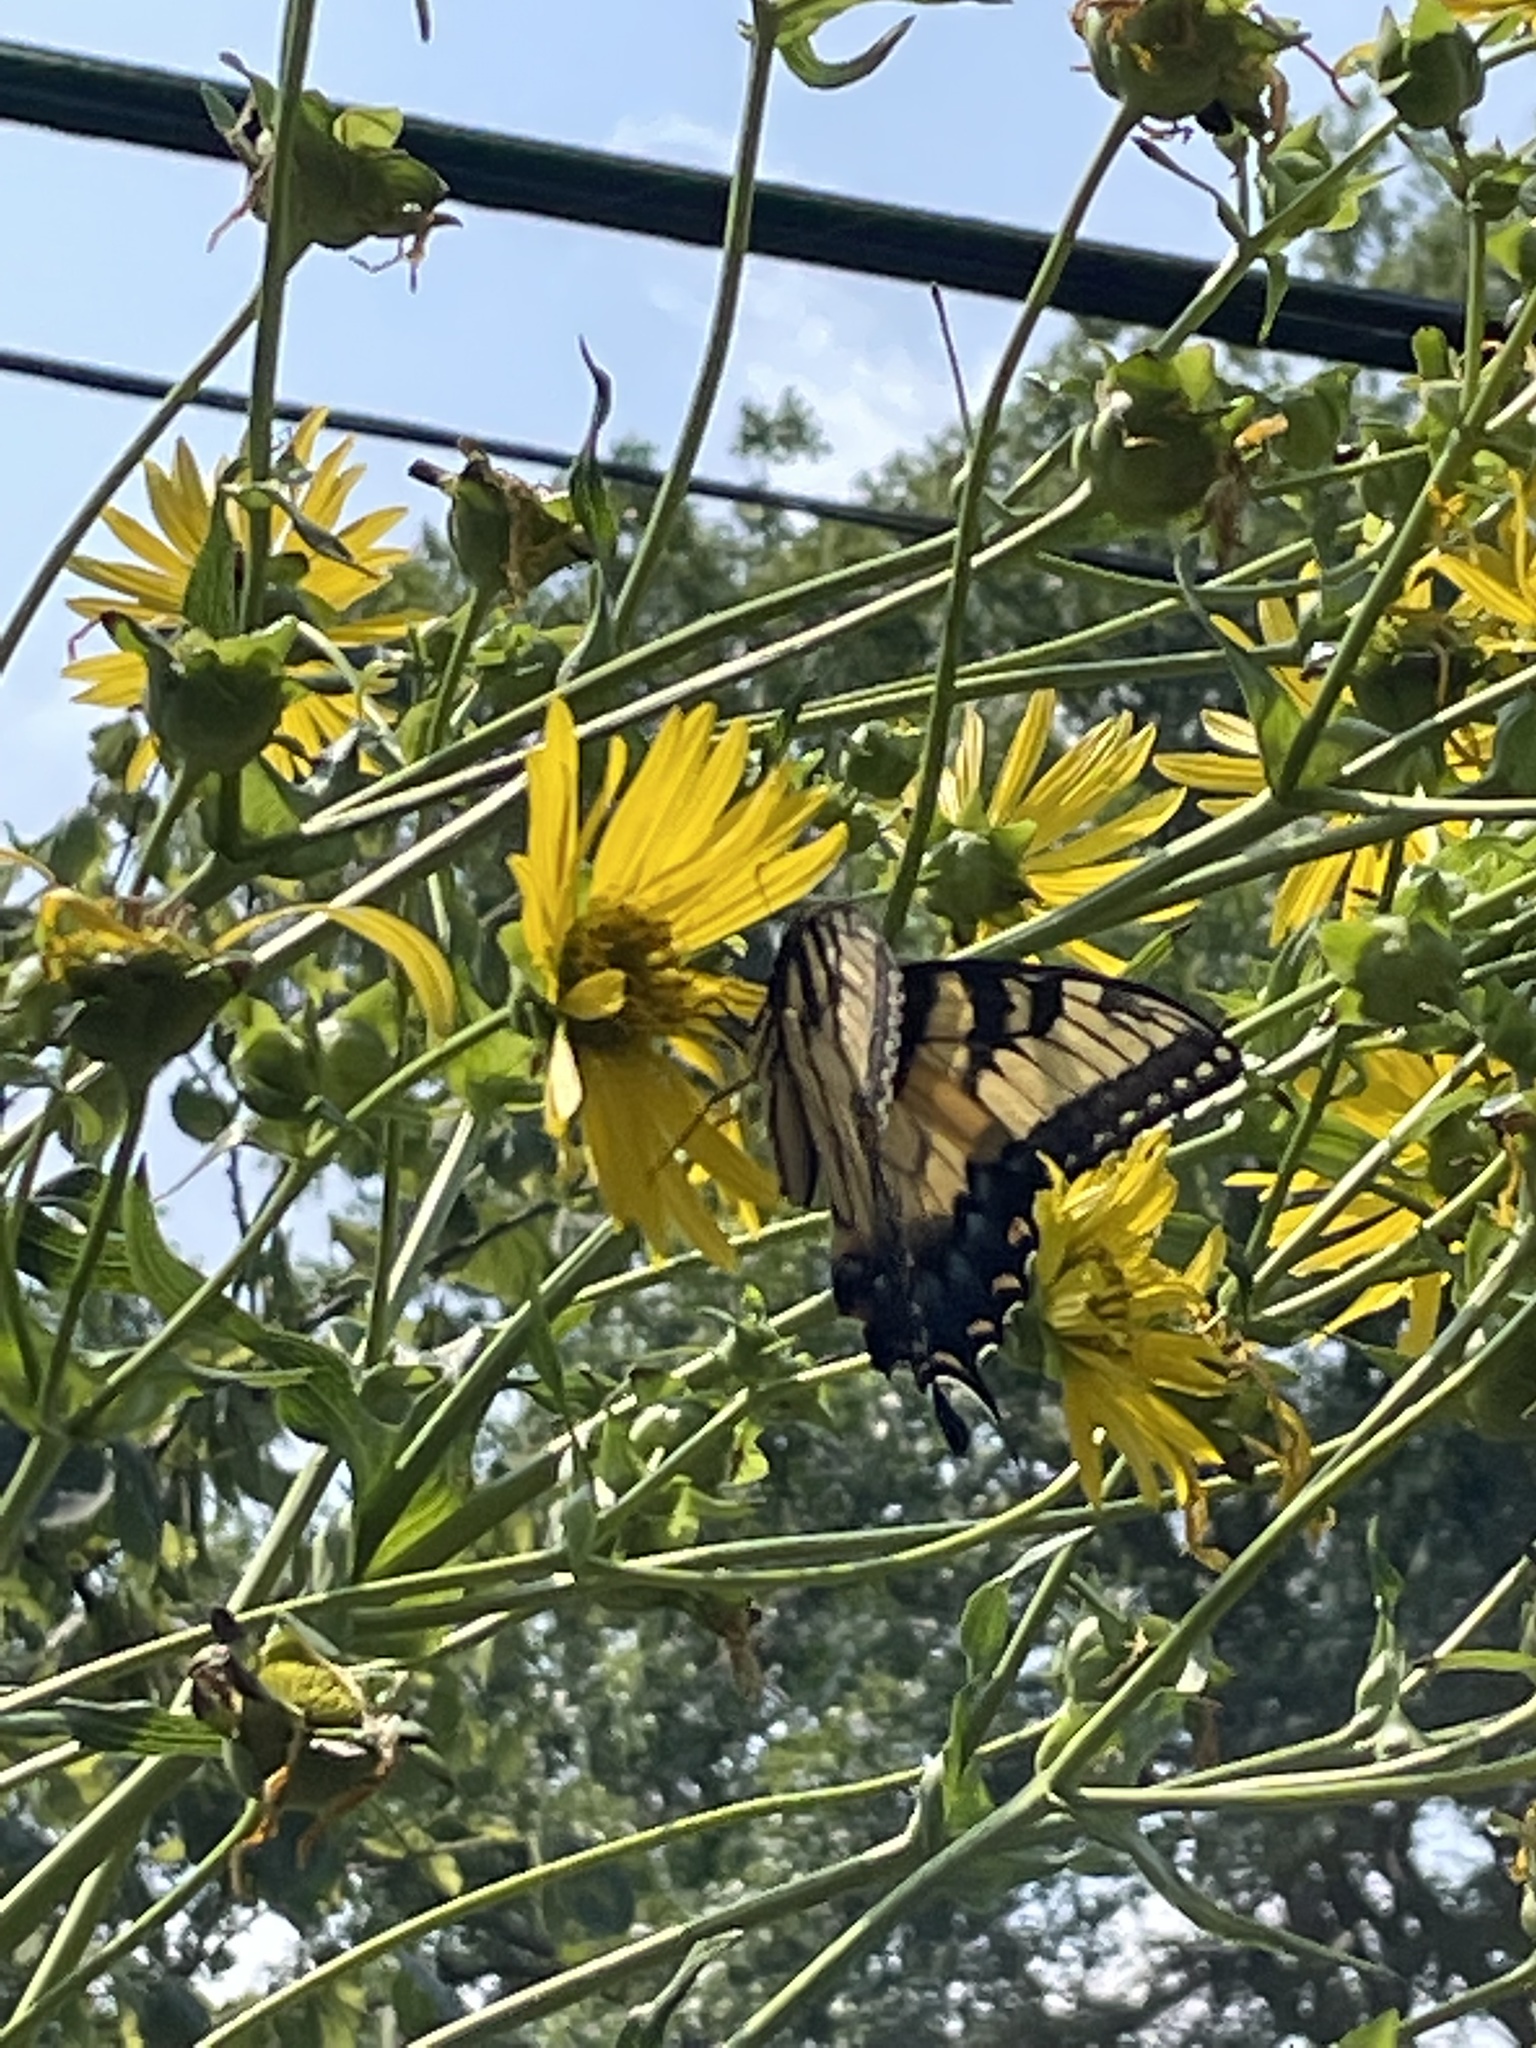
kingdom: Animalia
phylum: Arthropoda
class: Insecta
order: Lepidoptera
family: Papilionidae
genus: Papilio
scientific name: Papilio glaucus
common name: Tiger swallowtail
